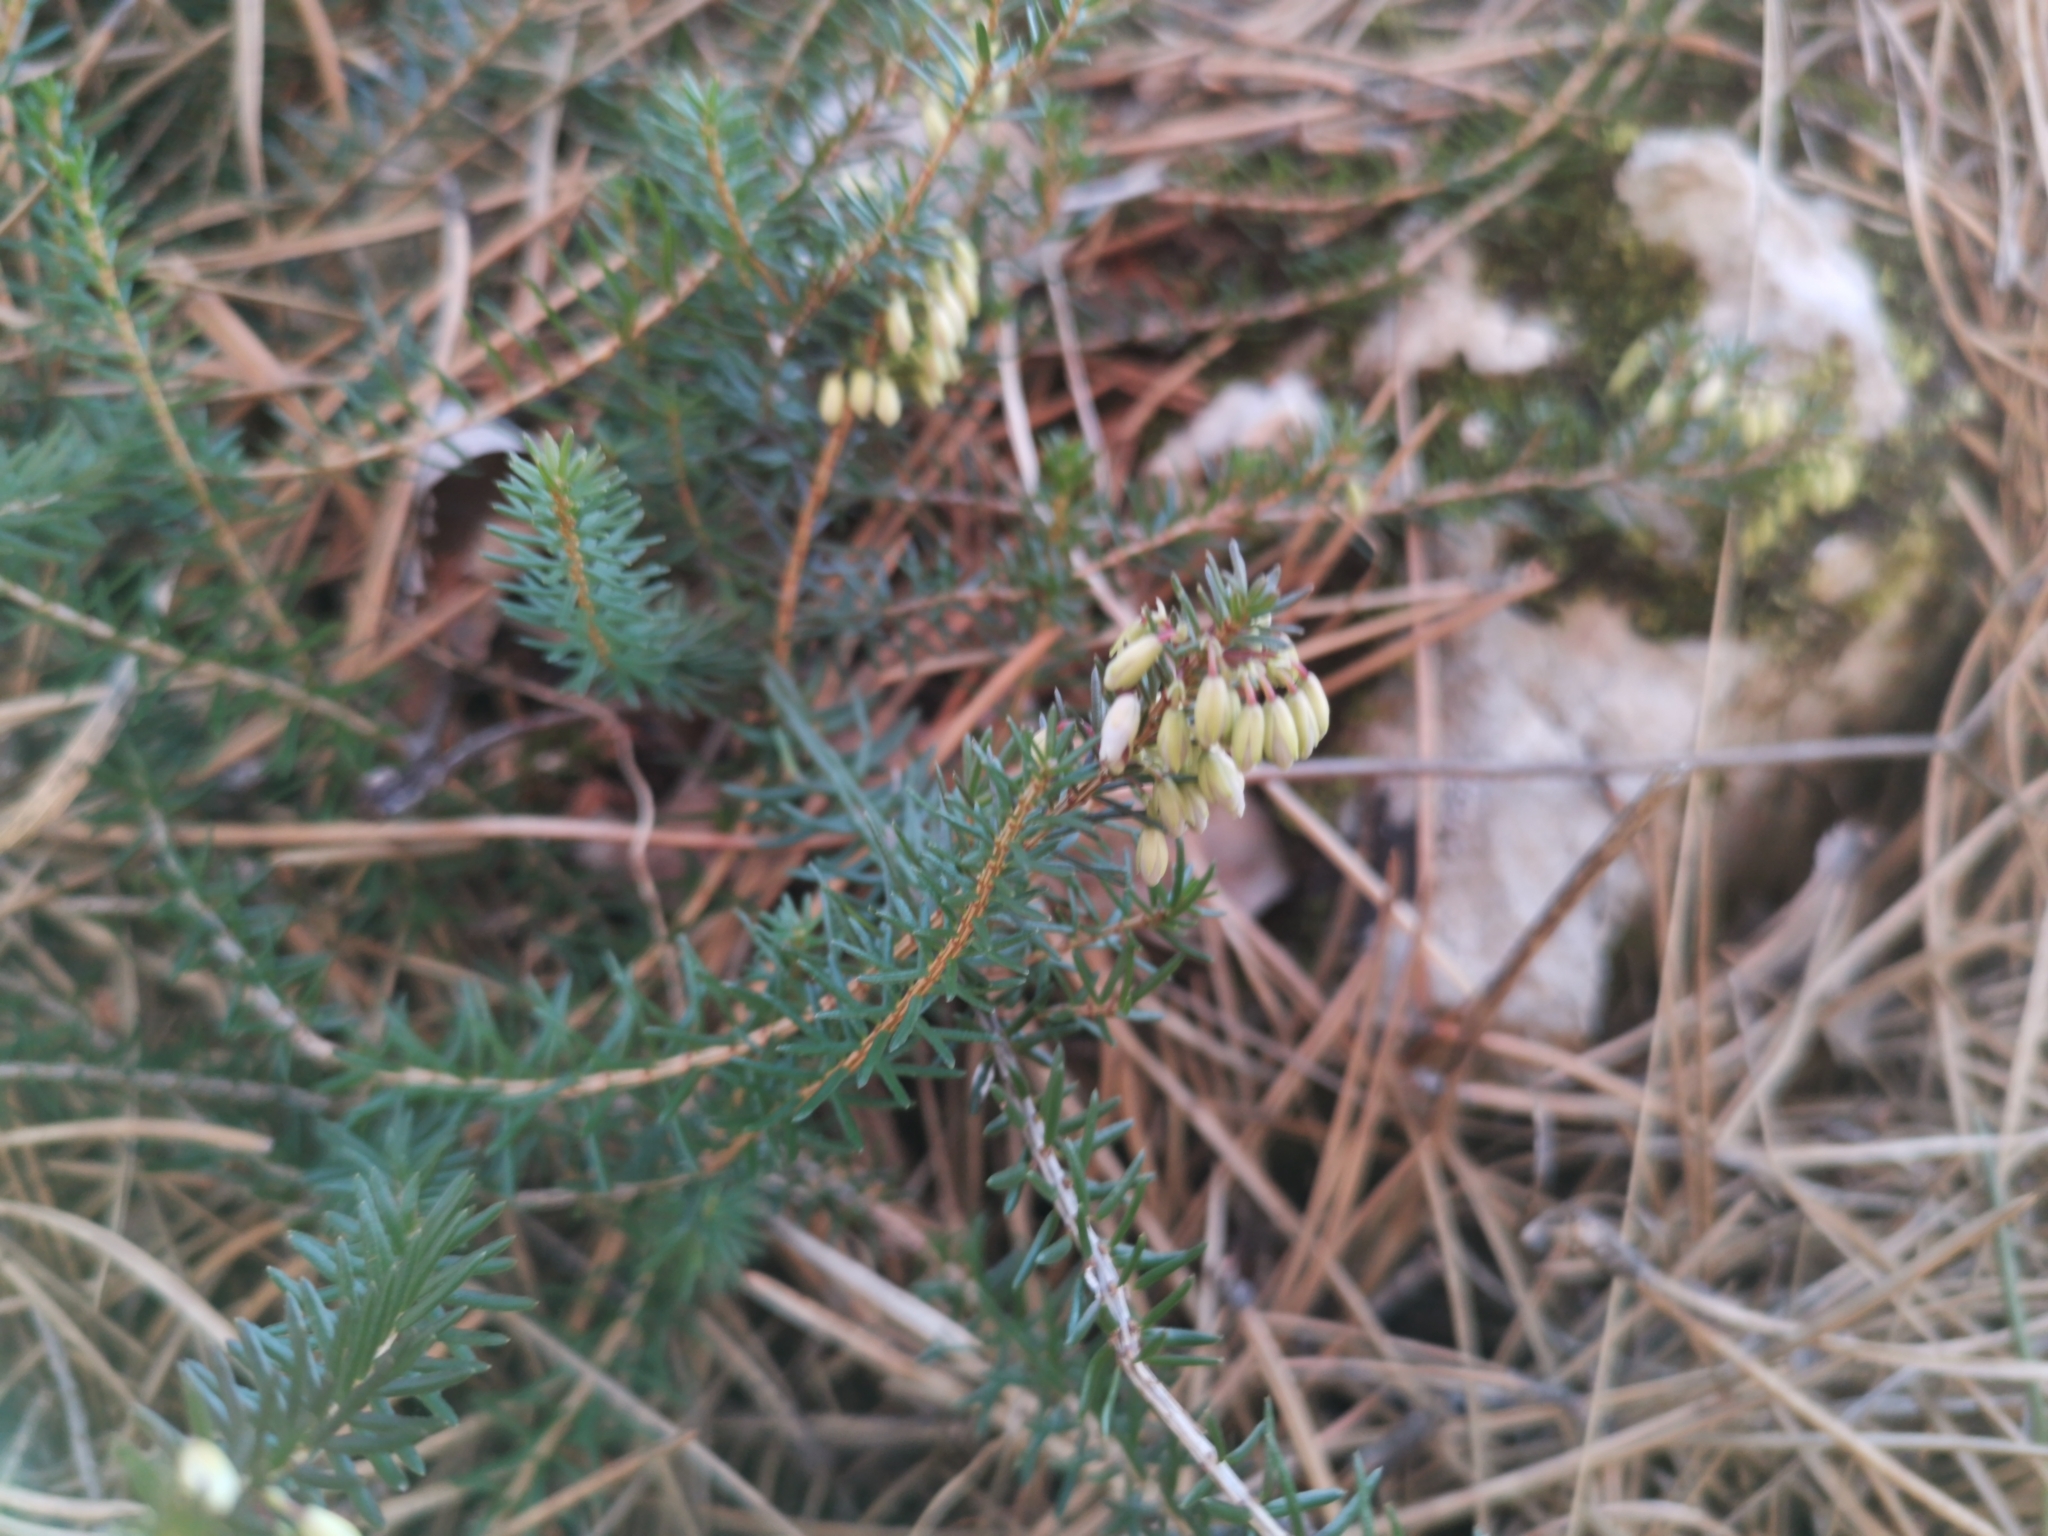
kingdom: Plantae
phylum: Tracheophyta
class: Magnoliopsida
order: Ericales
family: Ericaceae
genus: Erica
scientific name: Erica carnea
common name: Winter heath
